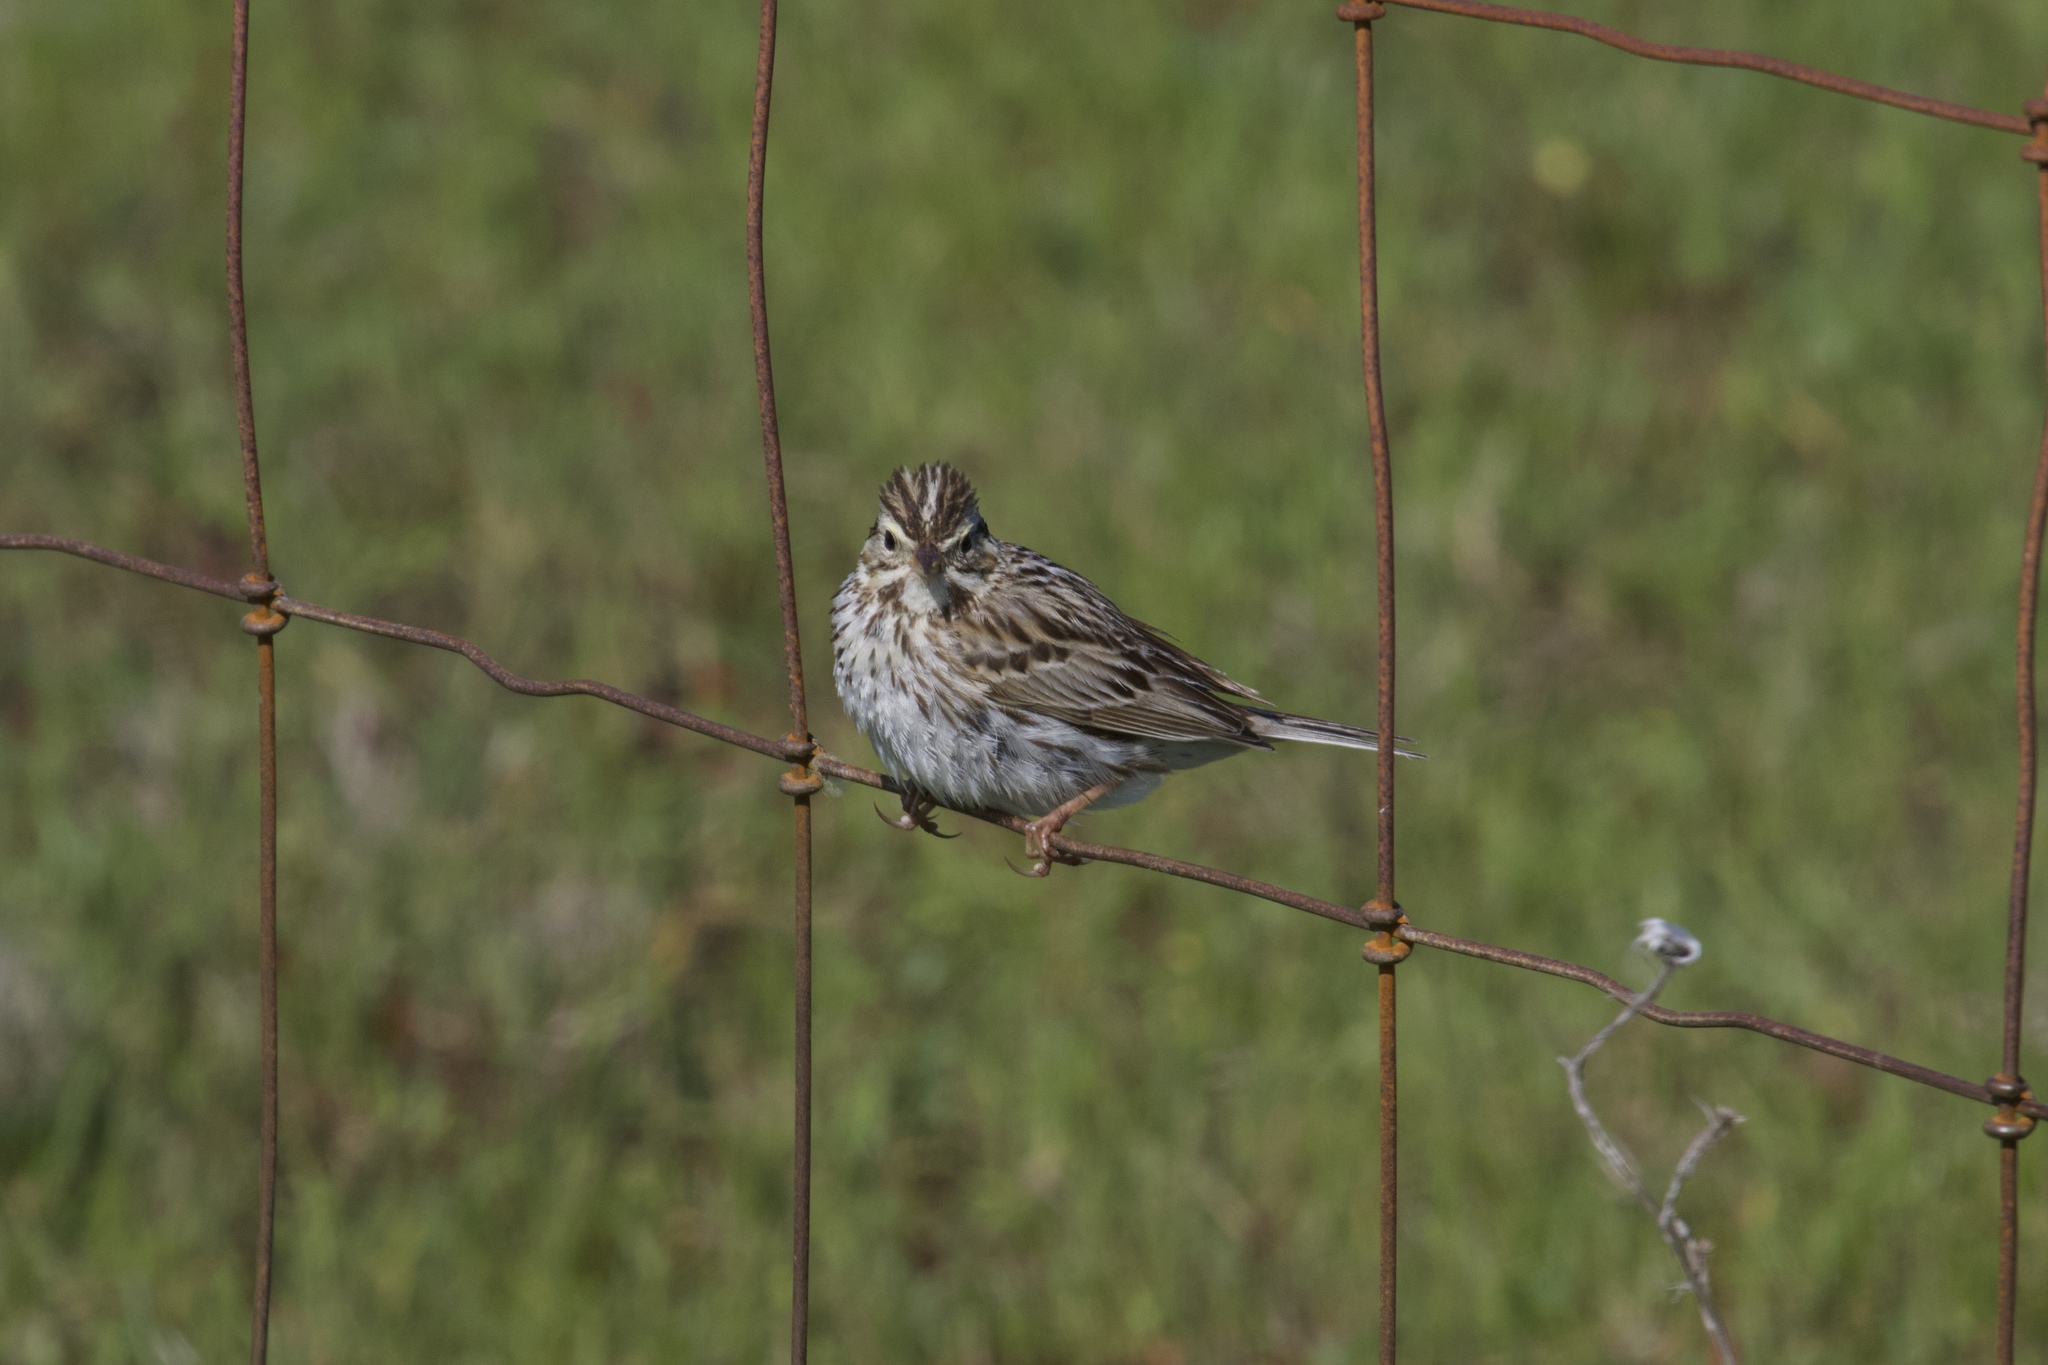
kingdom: Animalia
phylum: Chordata
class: Aves
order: Passeriformes
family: Passerellidae
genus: Passerculus
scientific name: Passerculus sandwichensis
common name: Savannah sparrow
